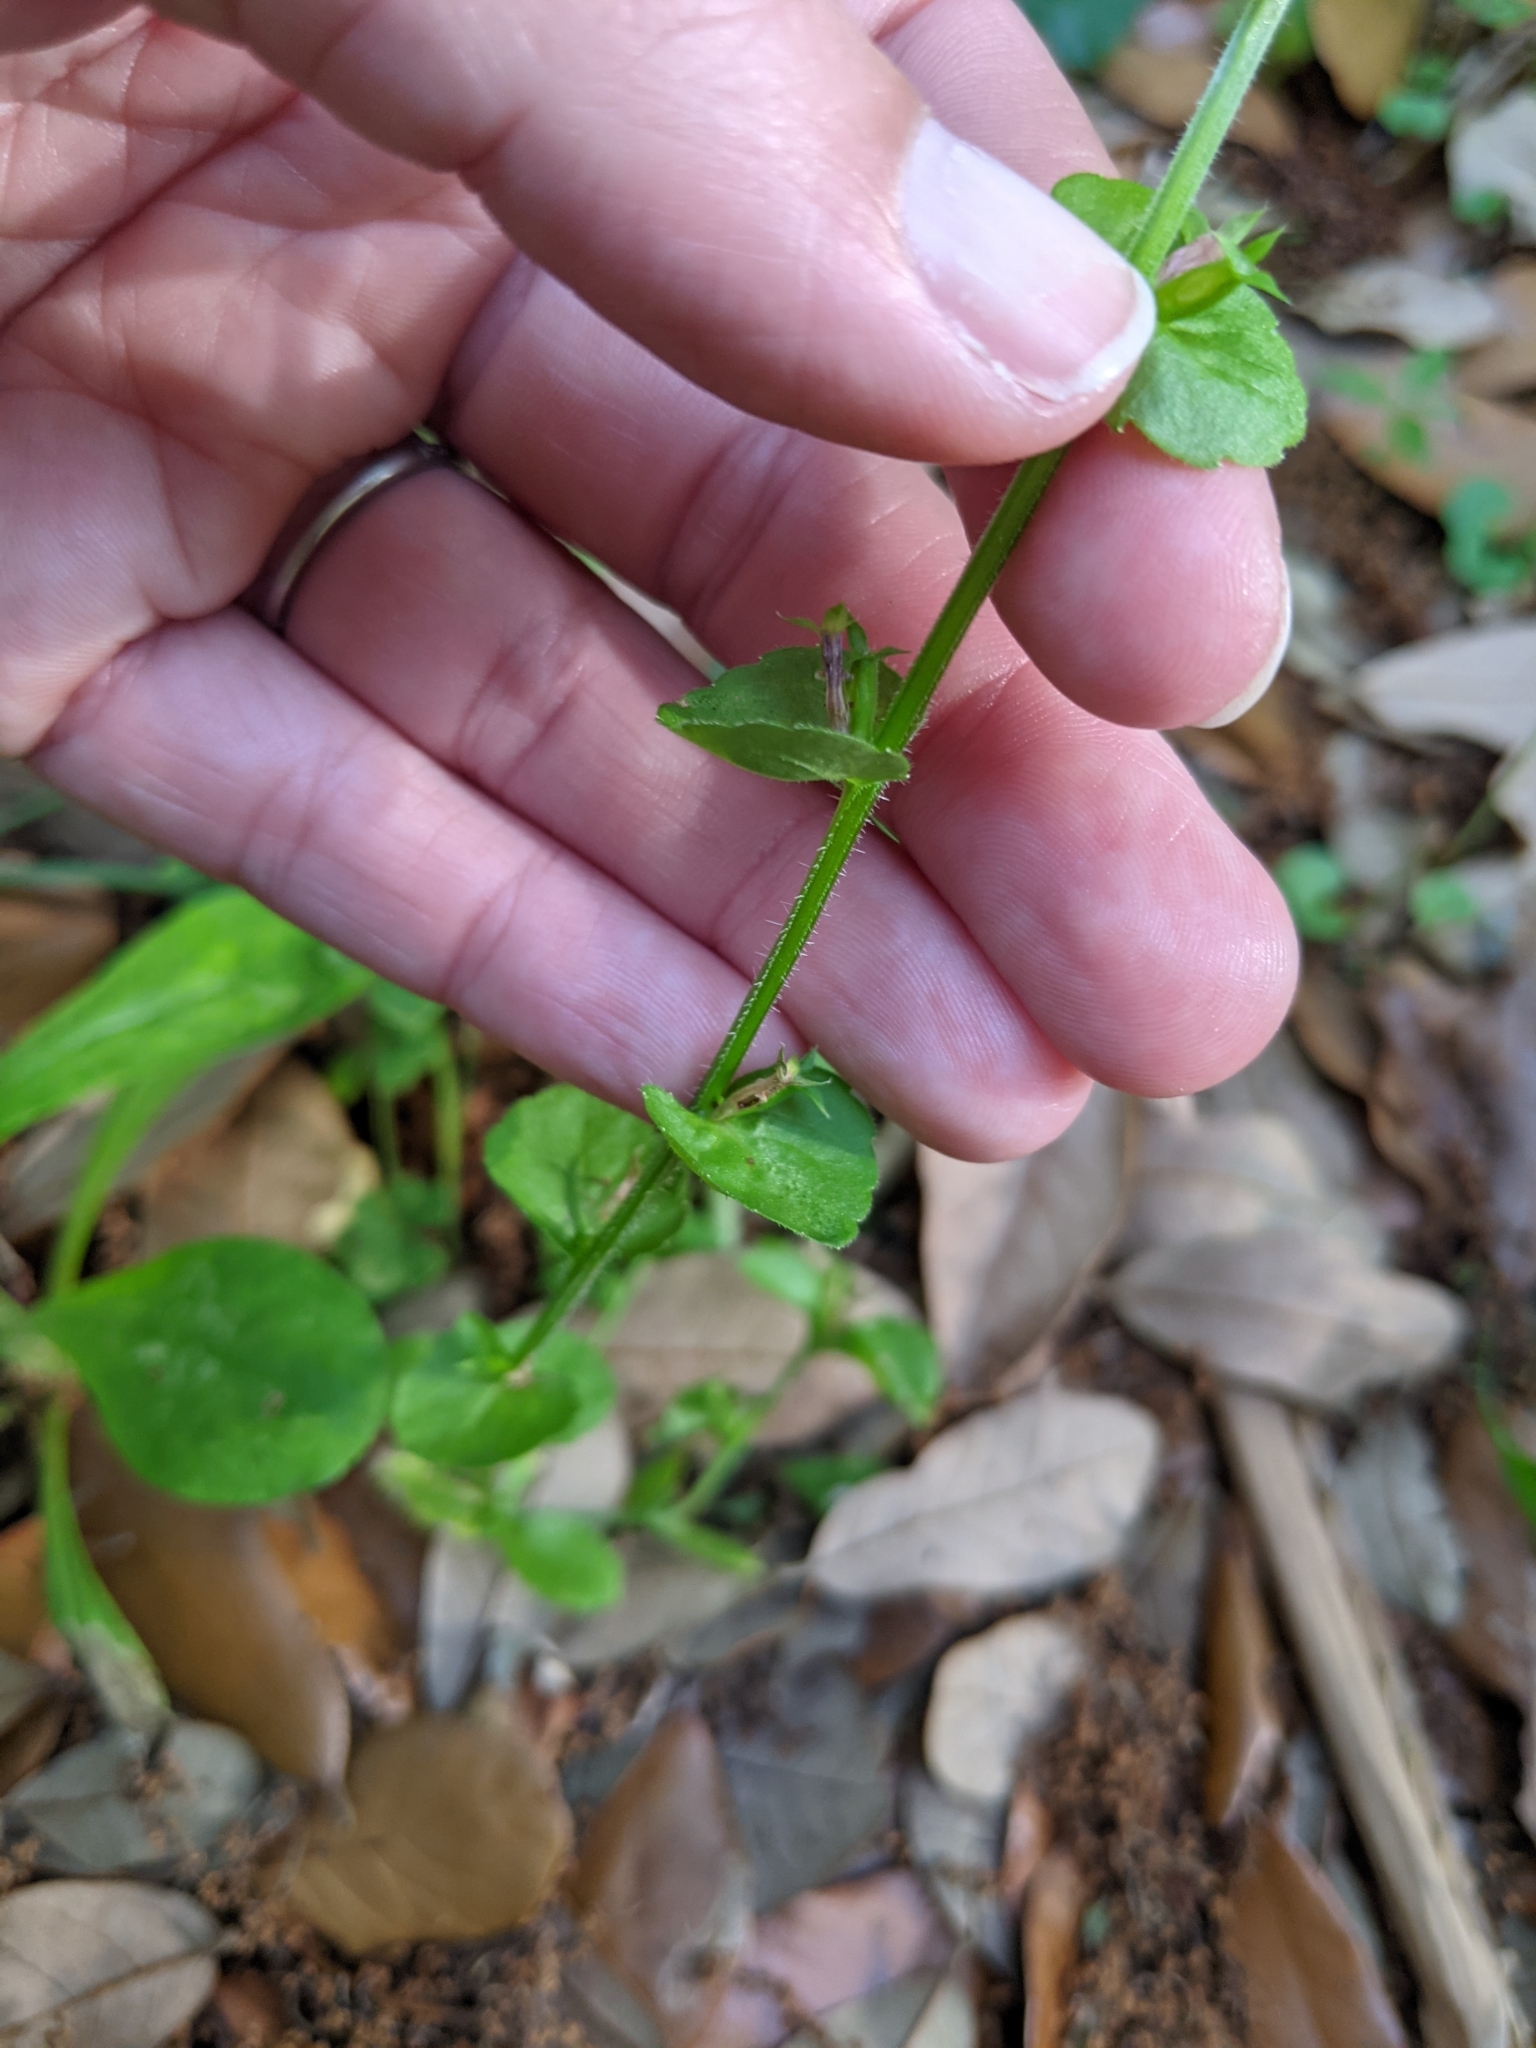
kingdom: Plantae
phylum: Tracheophyta
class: Magnoliopsida
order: Asterales
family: Campanulaceae
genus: Triodanis
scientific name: Triodanis perfoliata
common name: Clasping venus' looking-glass
